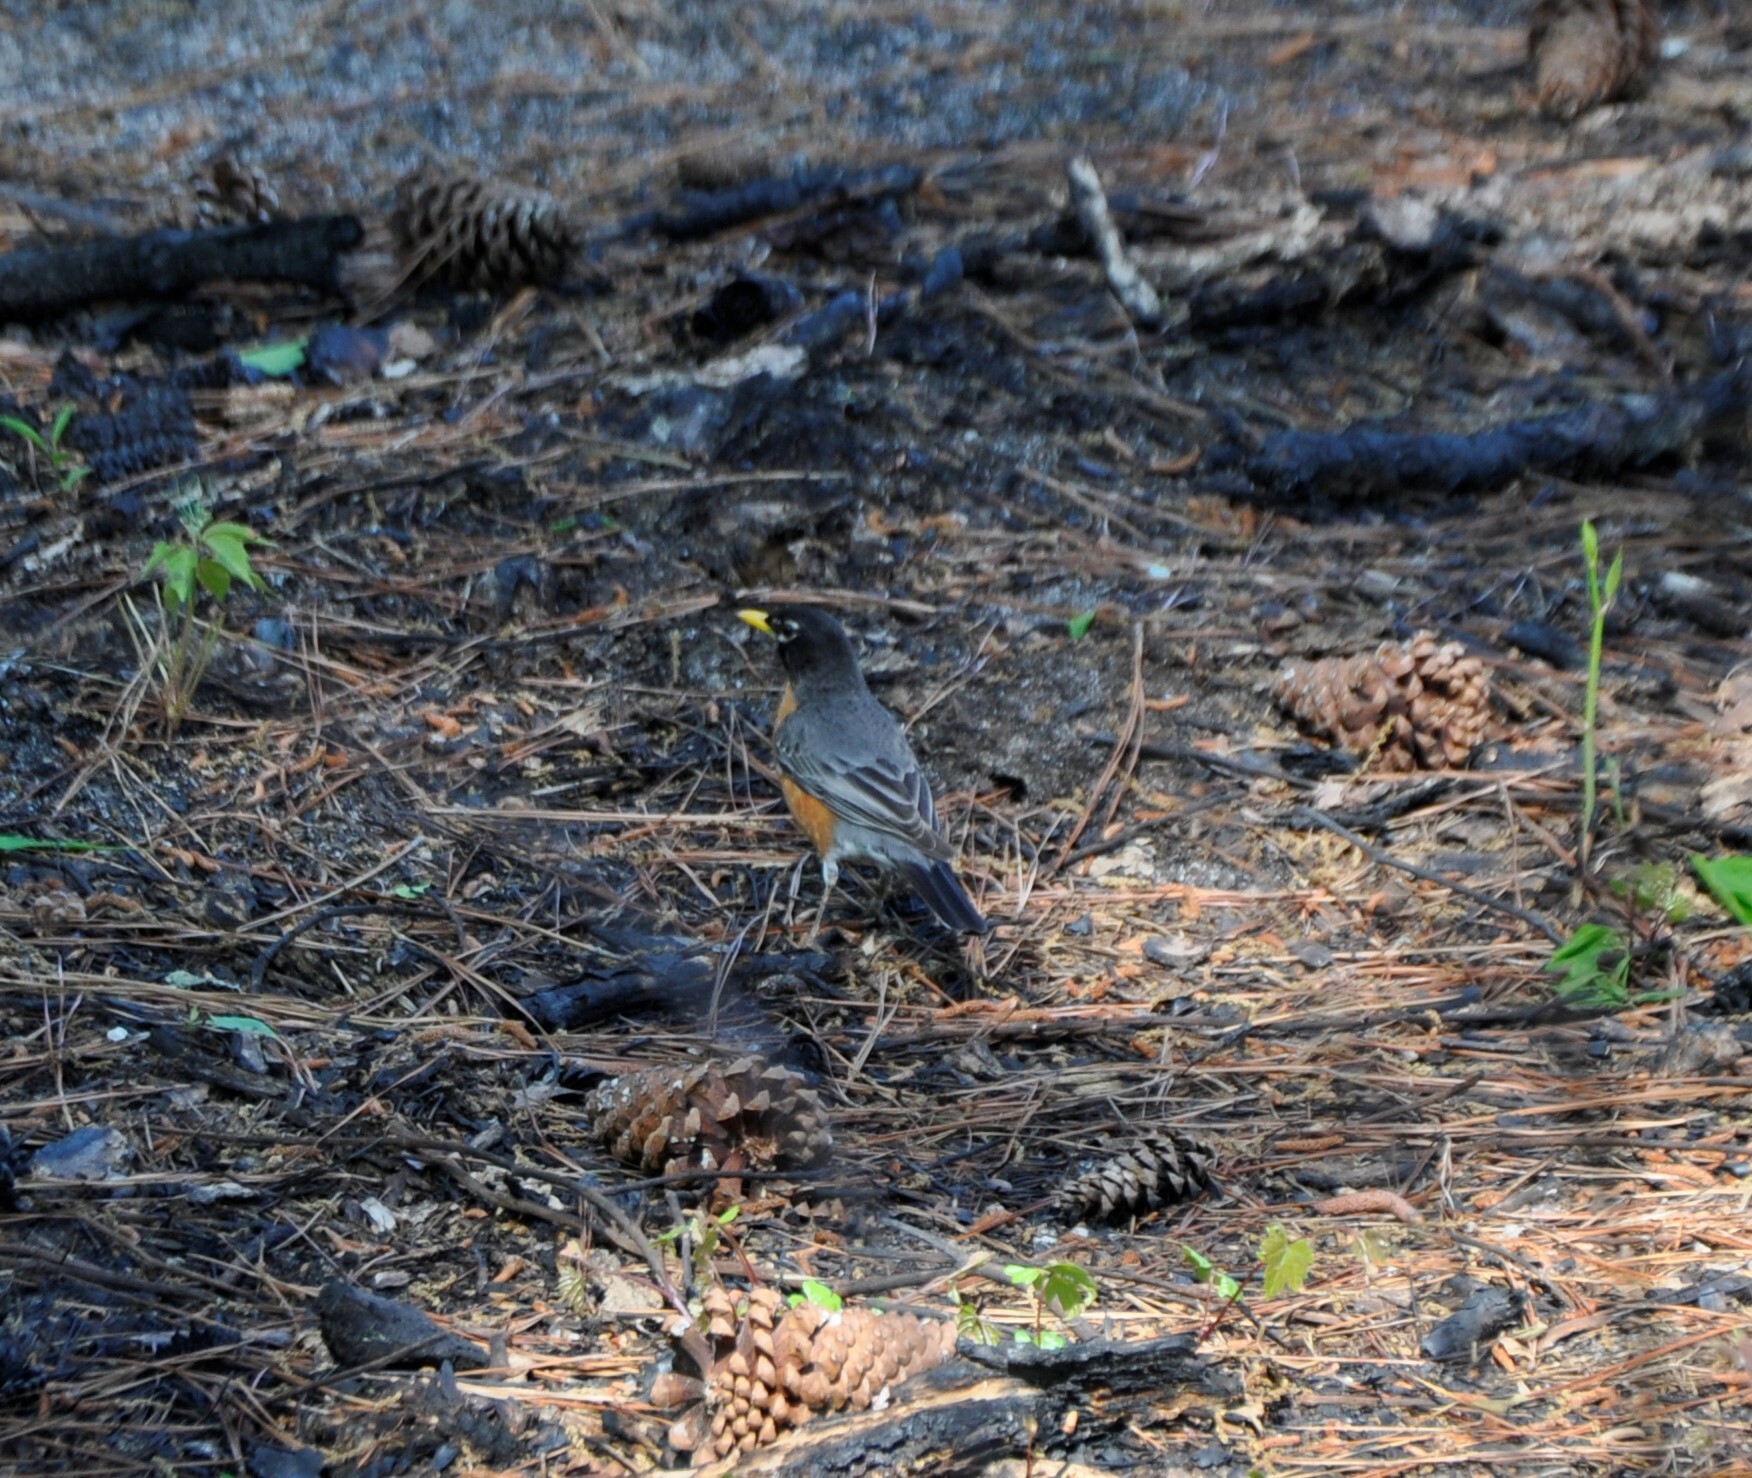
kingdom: Animalia
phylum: Chordata
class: Aves
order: Passeriformes
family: Turdidae
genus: Turdus
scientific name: Turdus migratorius
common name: American robin
